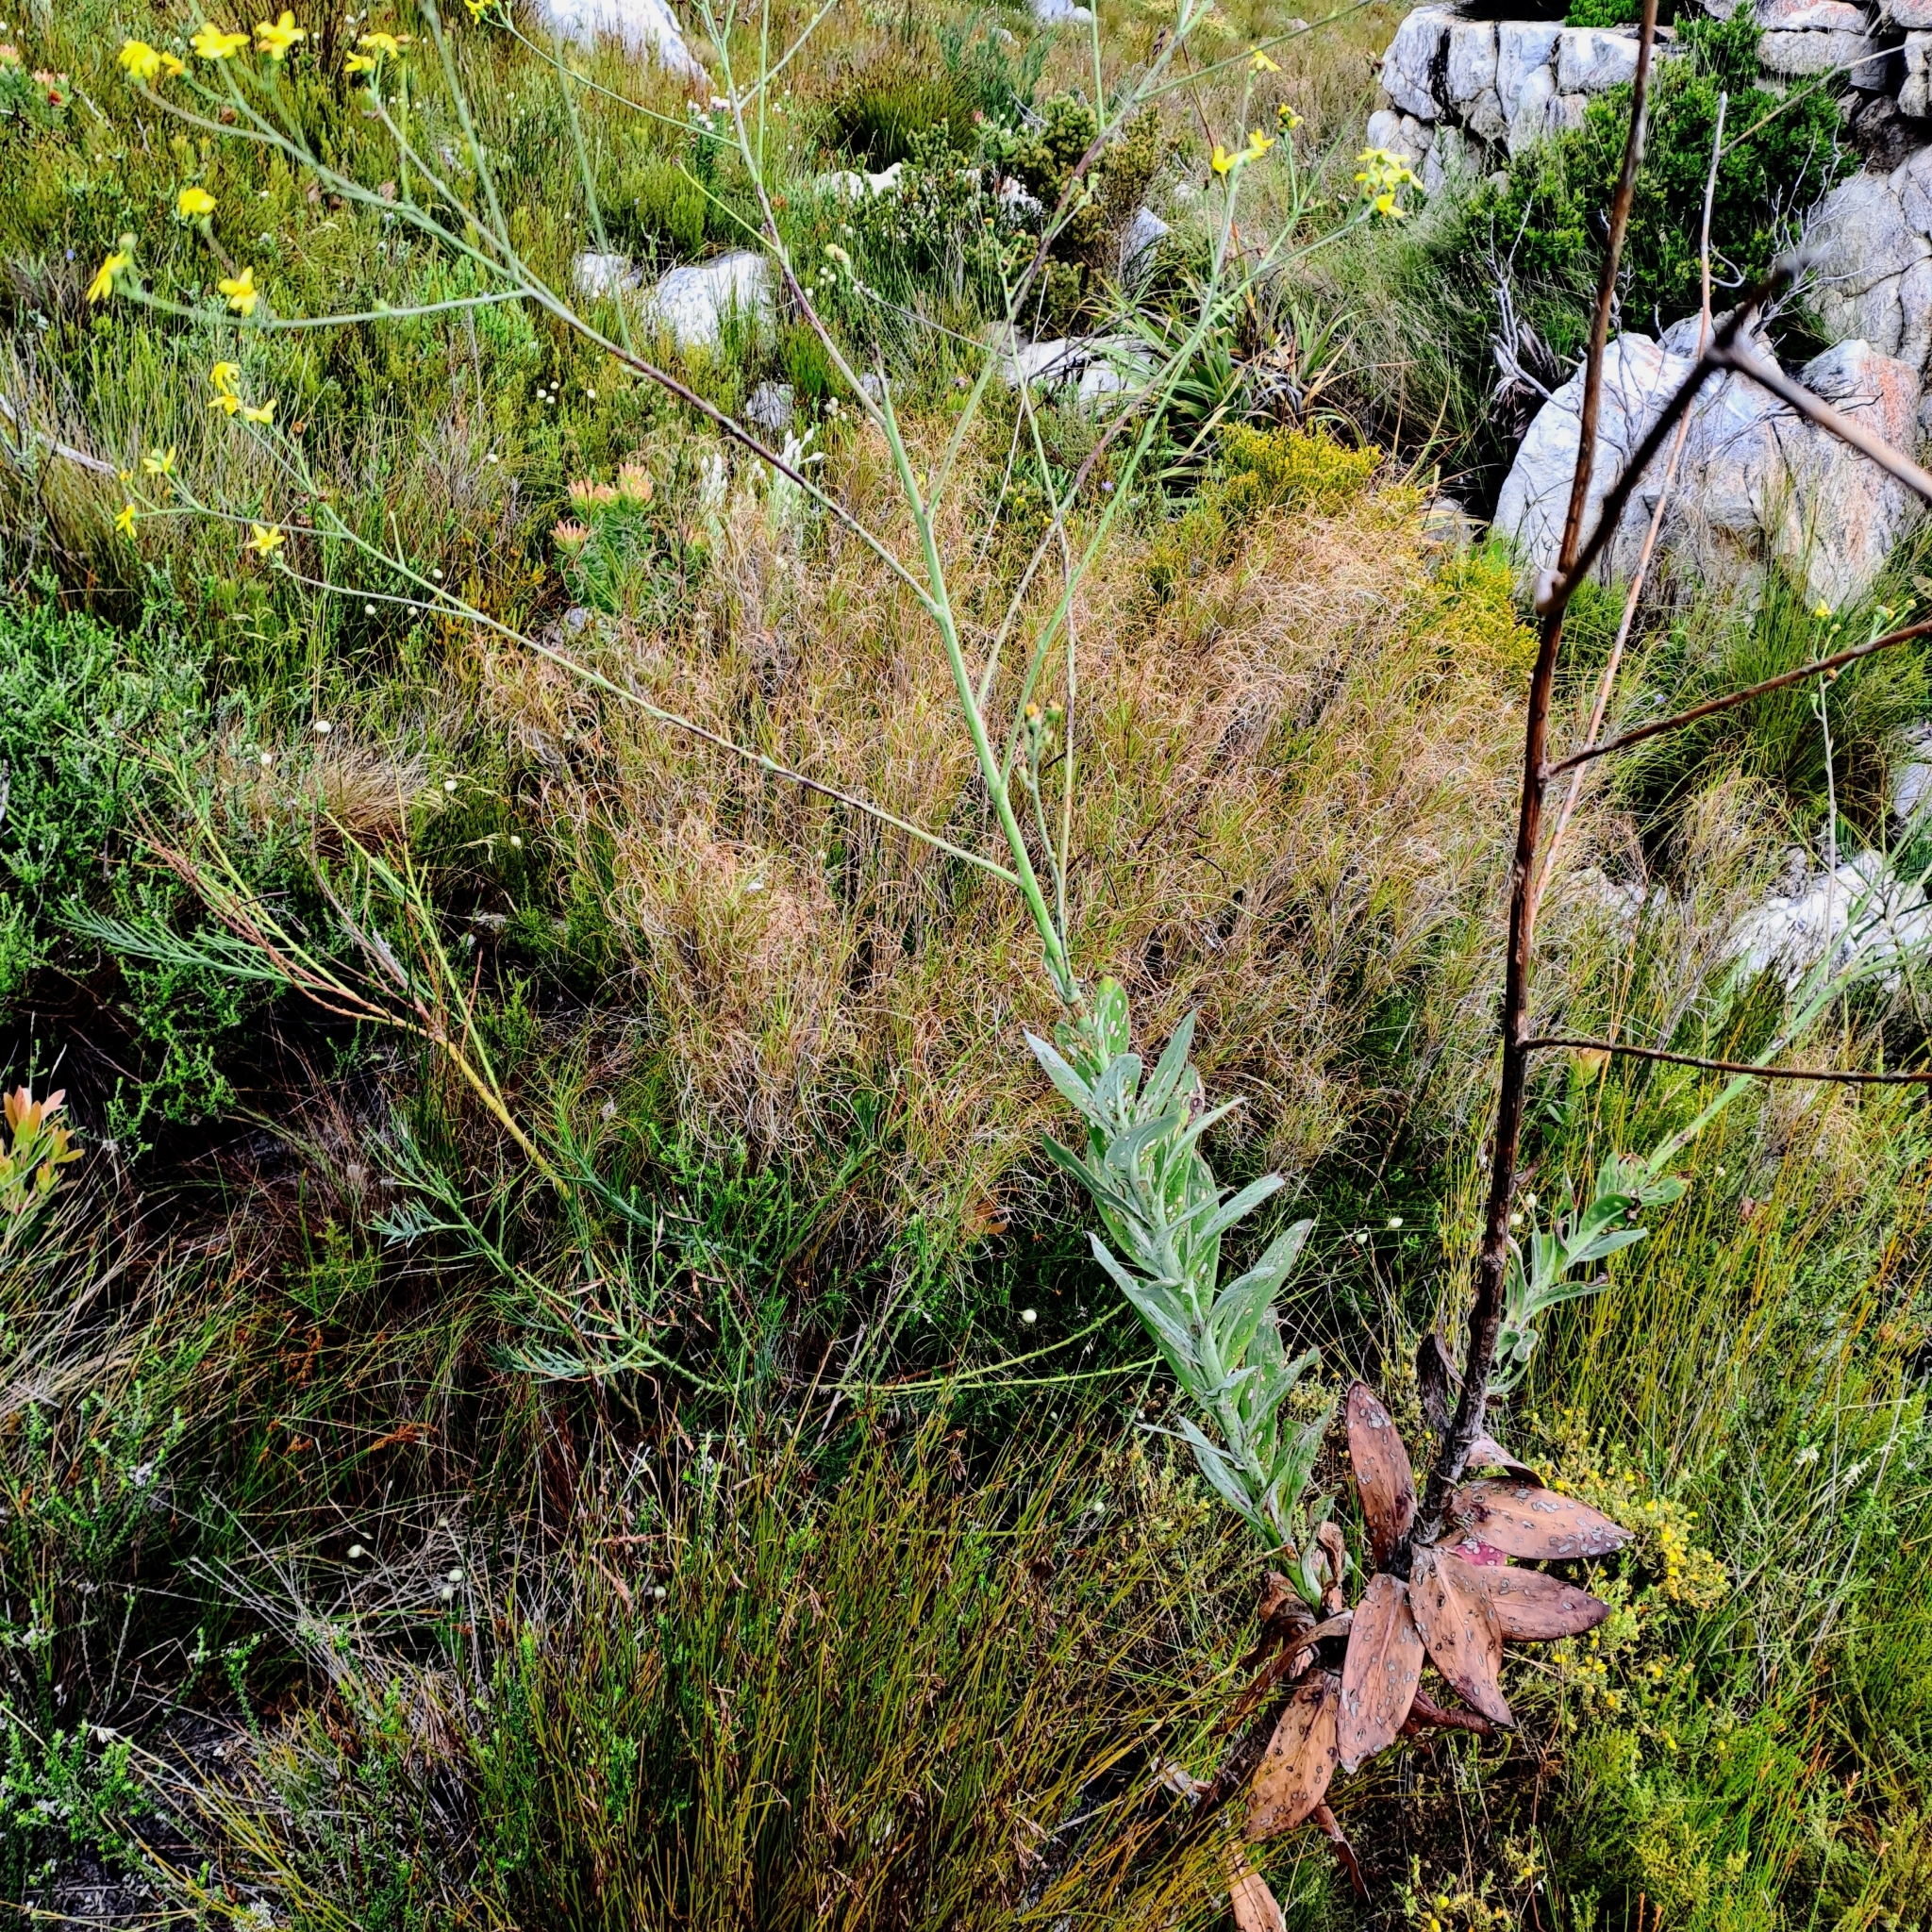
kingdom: Plantae
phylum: Tracheophyta
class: Magnoliopsida
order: Asterales
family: Asteraceae
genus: Othonna
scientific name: Othonna quinquedentata
